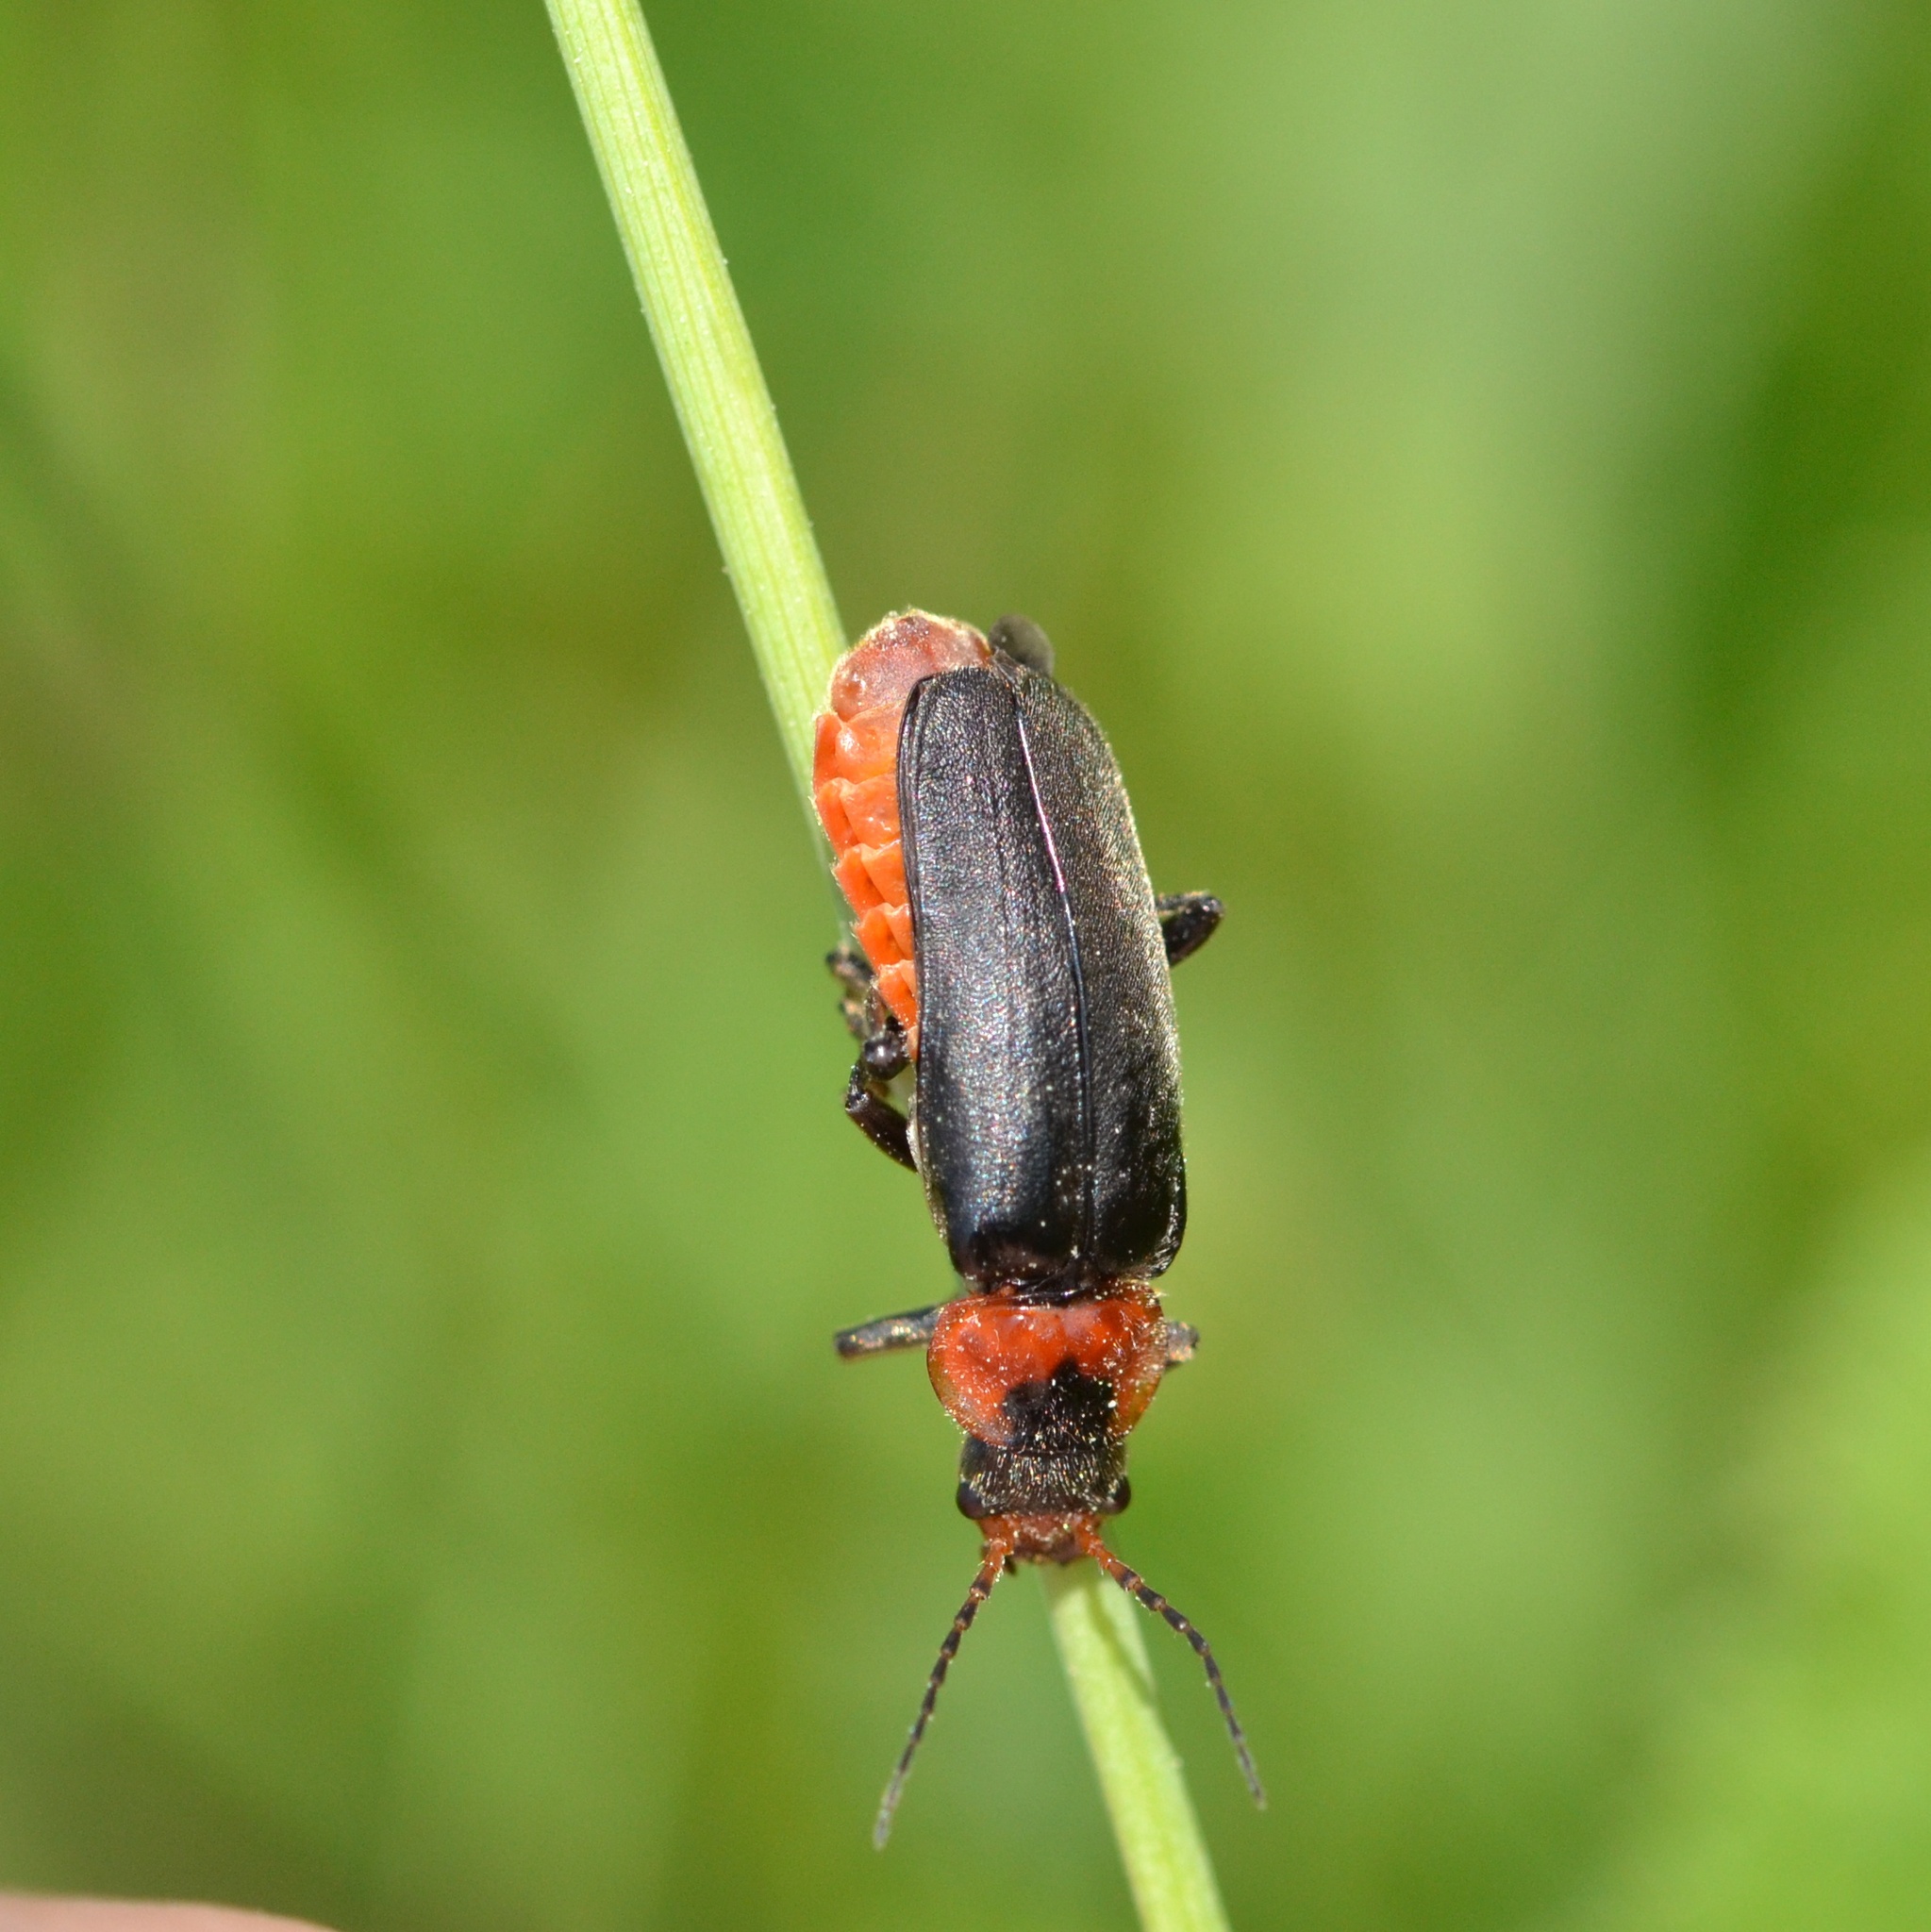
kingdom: Animalia
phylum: Arthropoda
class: Insecta
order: Coleoptera
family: Cantharidae
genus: Cantharis
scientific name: Cantharis fusca
